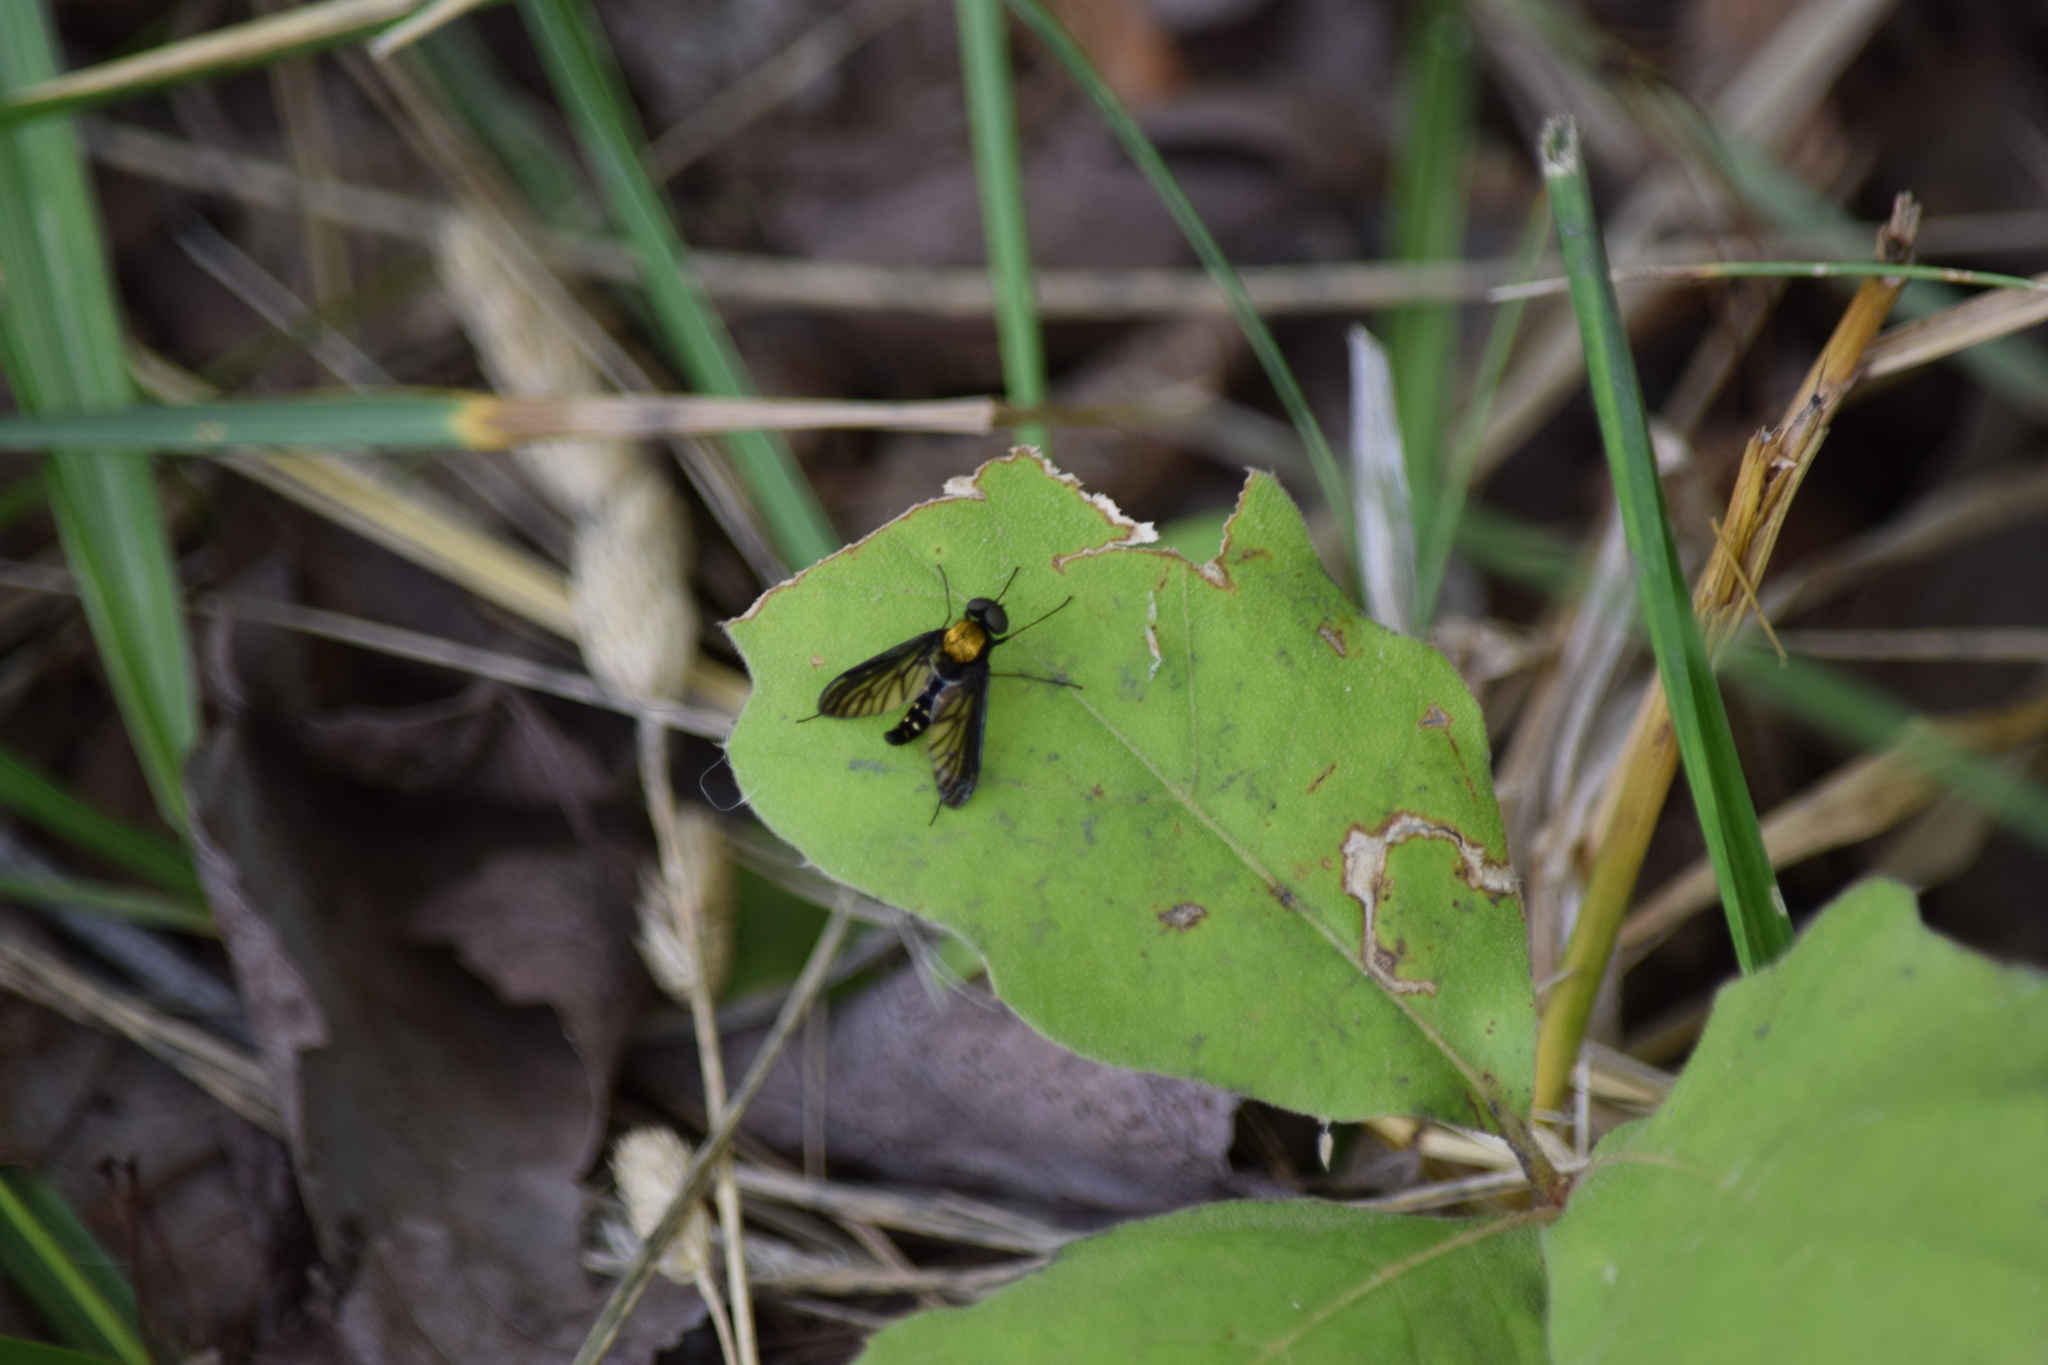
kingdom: Animalia
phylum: Arthropoda
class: Insecta
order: Diptera
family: Rhagionidae
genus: Chrysopilus
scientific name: Chrysopilus thoracicus
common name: Golden-backed snipe fly
